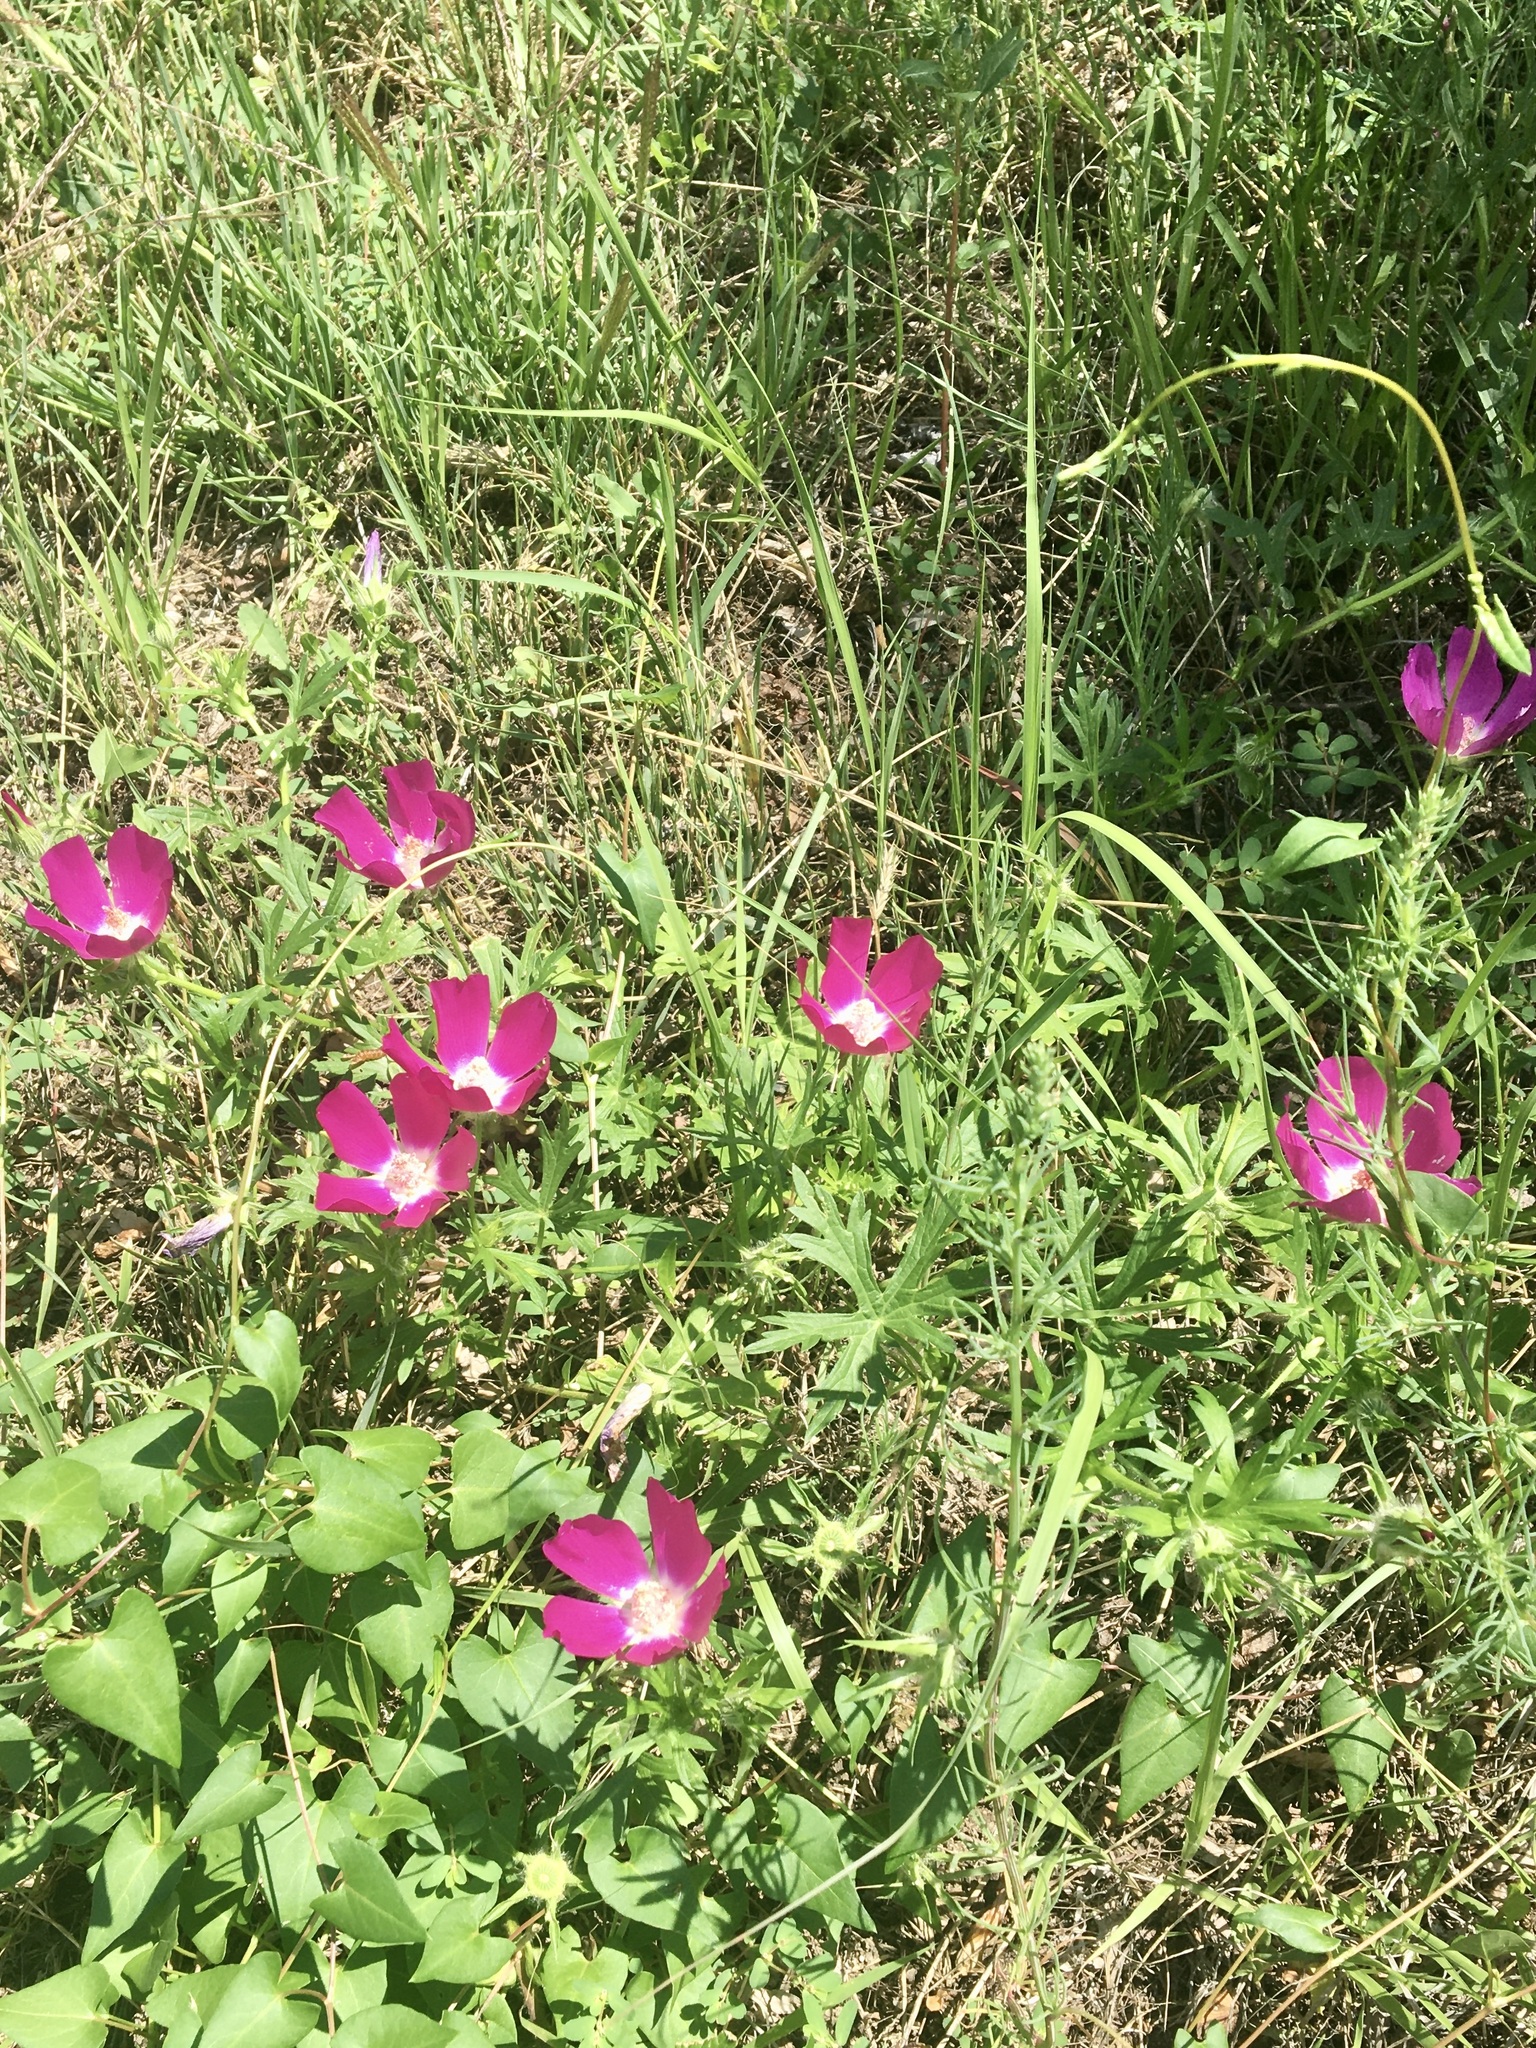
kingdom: Plantae
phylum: Tracheophyta
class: Magnoliopsida
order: Malvales
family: Malvaceae
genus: Callirhoe
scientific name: Callirhoe involucrata
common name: Purple poppy-mallow
